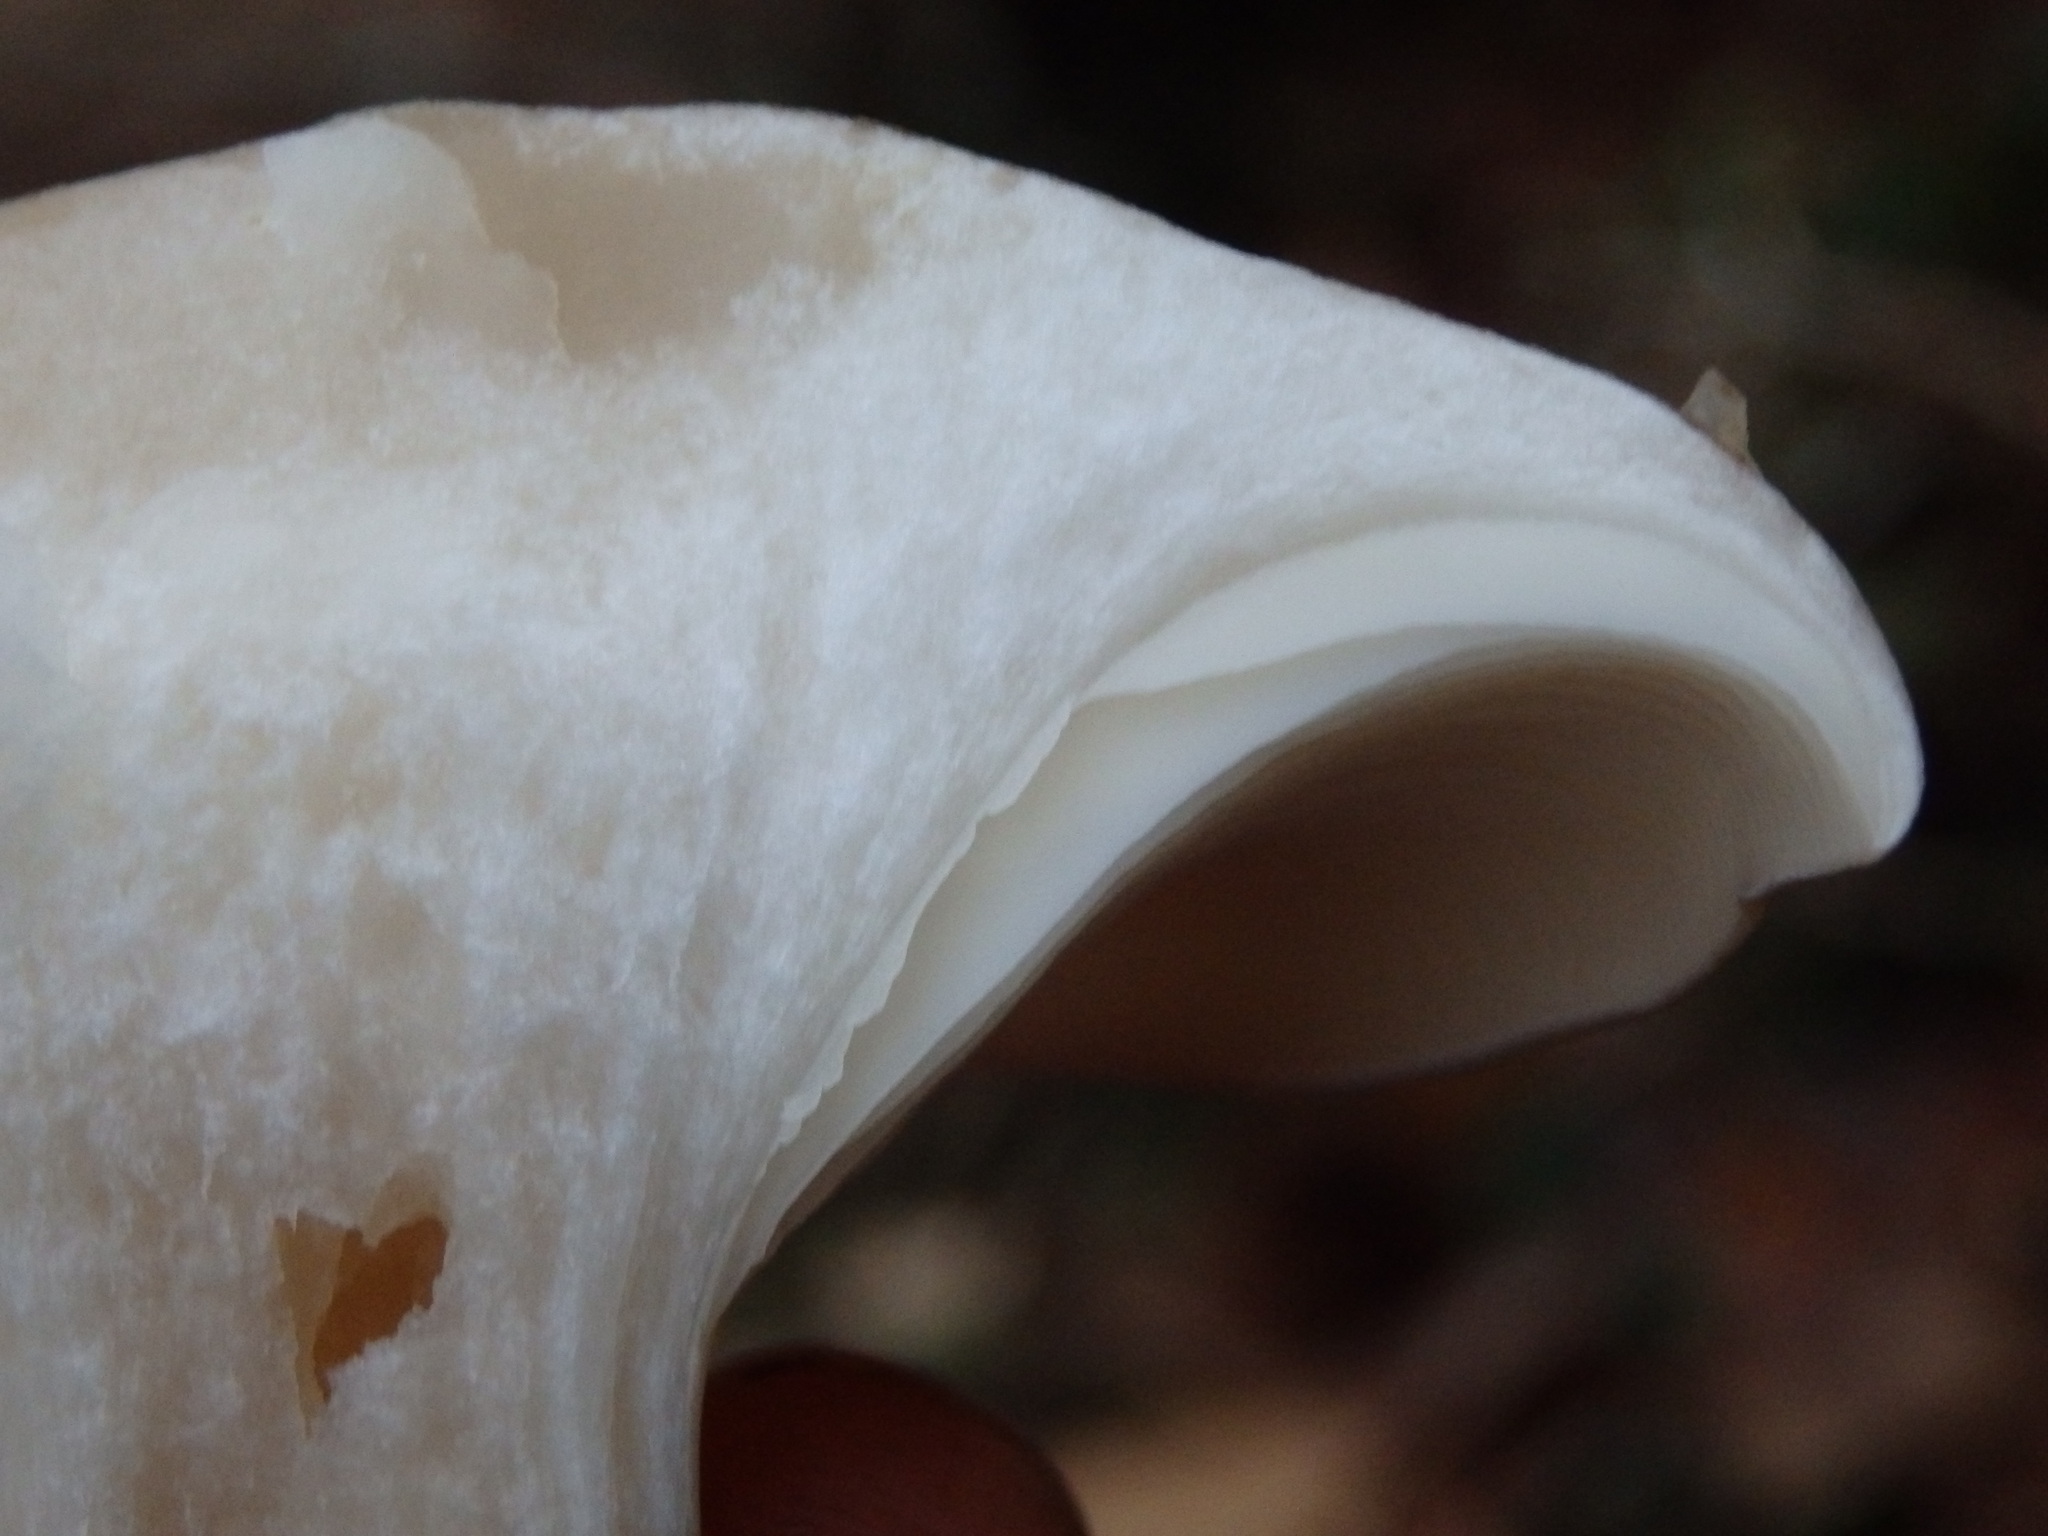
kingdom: Fungi
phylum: Basidiomycota
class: Agaricomycetes
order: Agaricales
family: Tricholomataceae
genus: Clitocybe
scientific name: Clitocybe nebularis
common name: Clouded agaric
